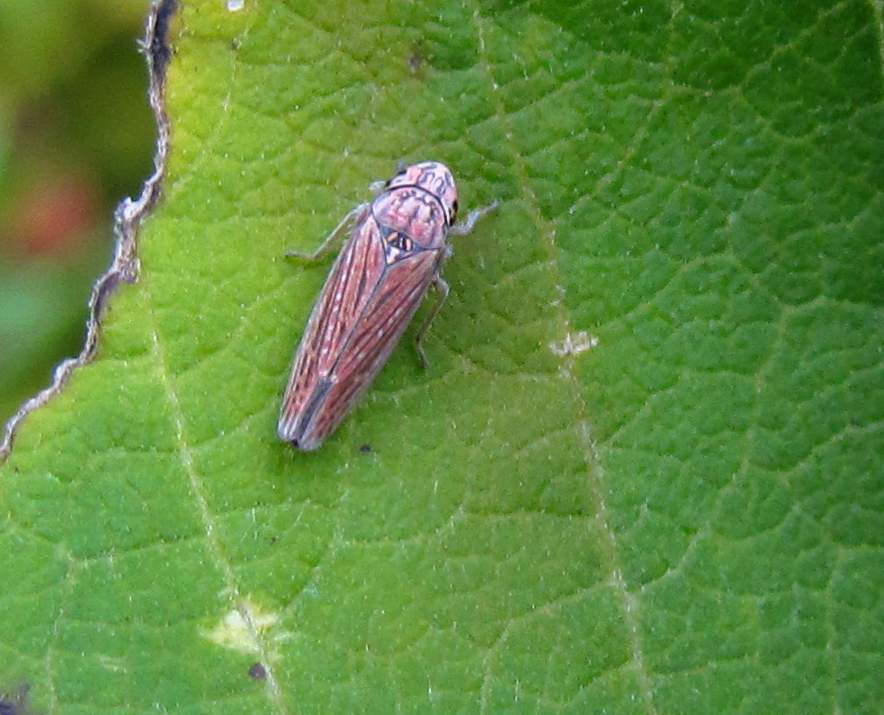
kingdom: Animalia
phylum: Arthropoda
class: Insecta
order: Hemiptera
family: Cicadellidae
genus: Neokolla
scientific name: Neokolla hieroglyphica
